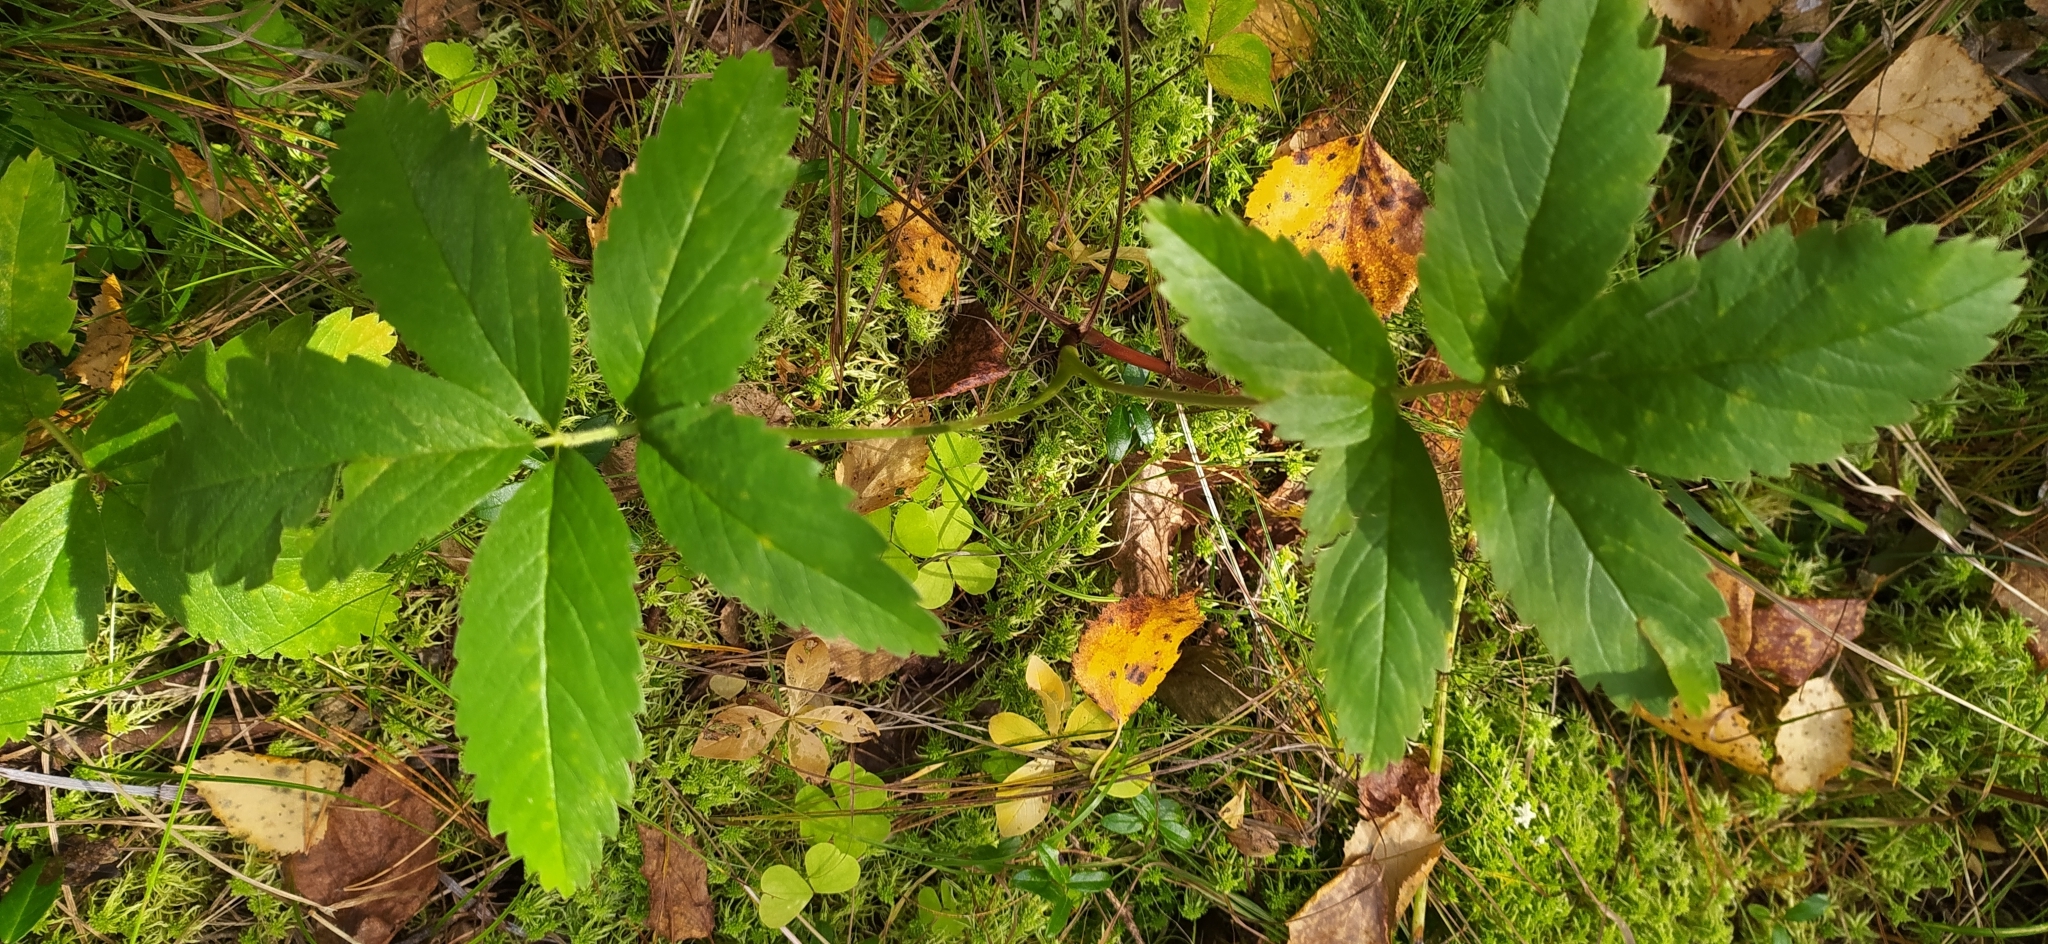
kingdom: Plantae
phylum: Tracheophyta
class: Magnoliopsida
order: Rosales
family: Rosaceae
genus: Comarum
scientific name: Comarum palustre
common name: Marsh cinquefoil
